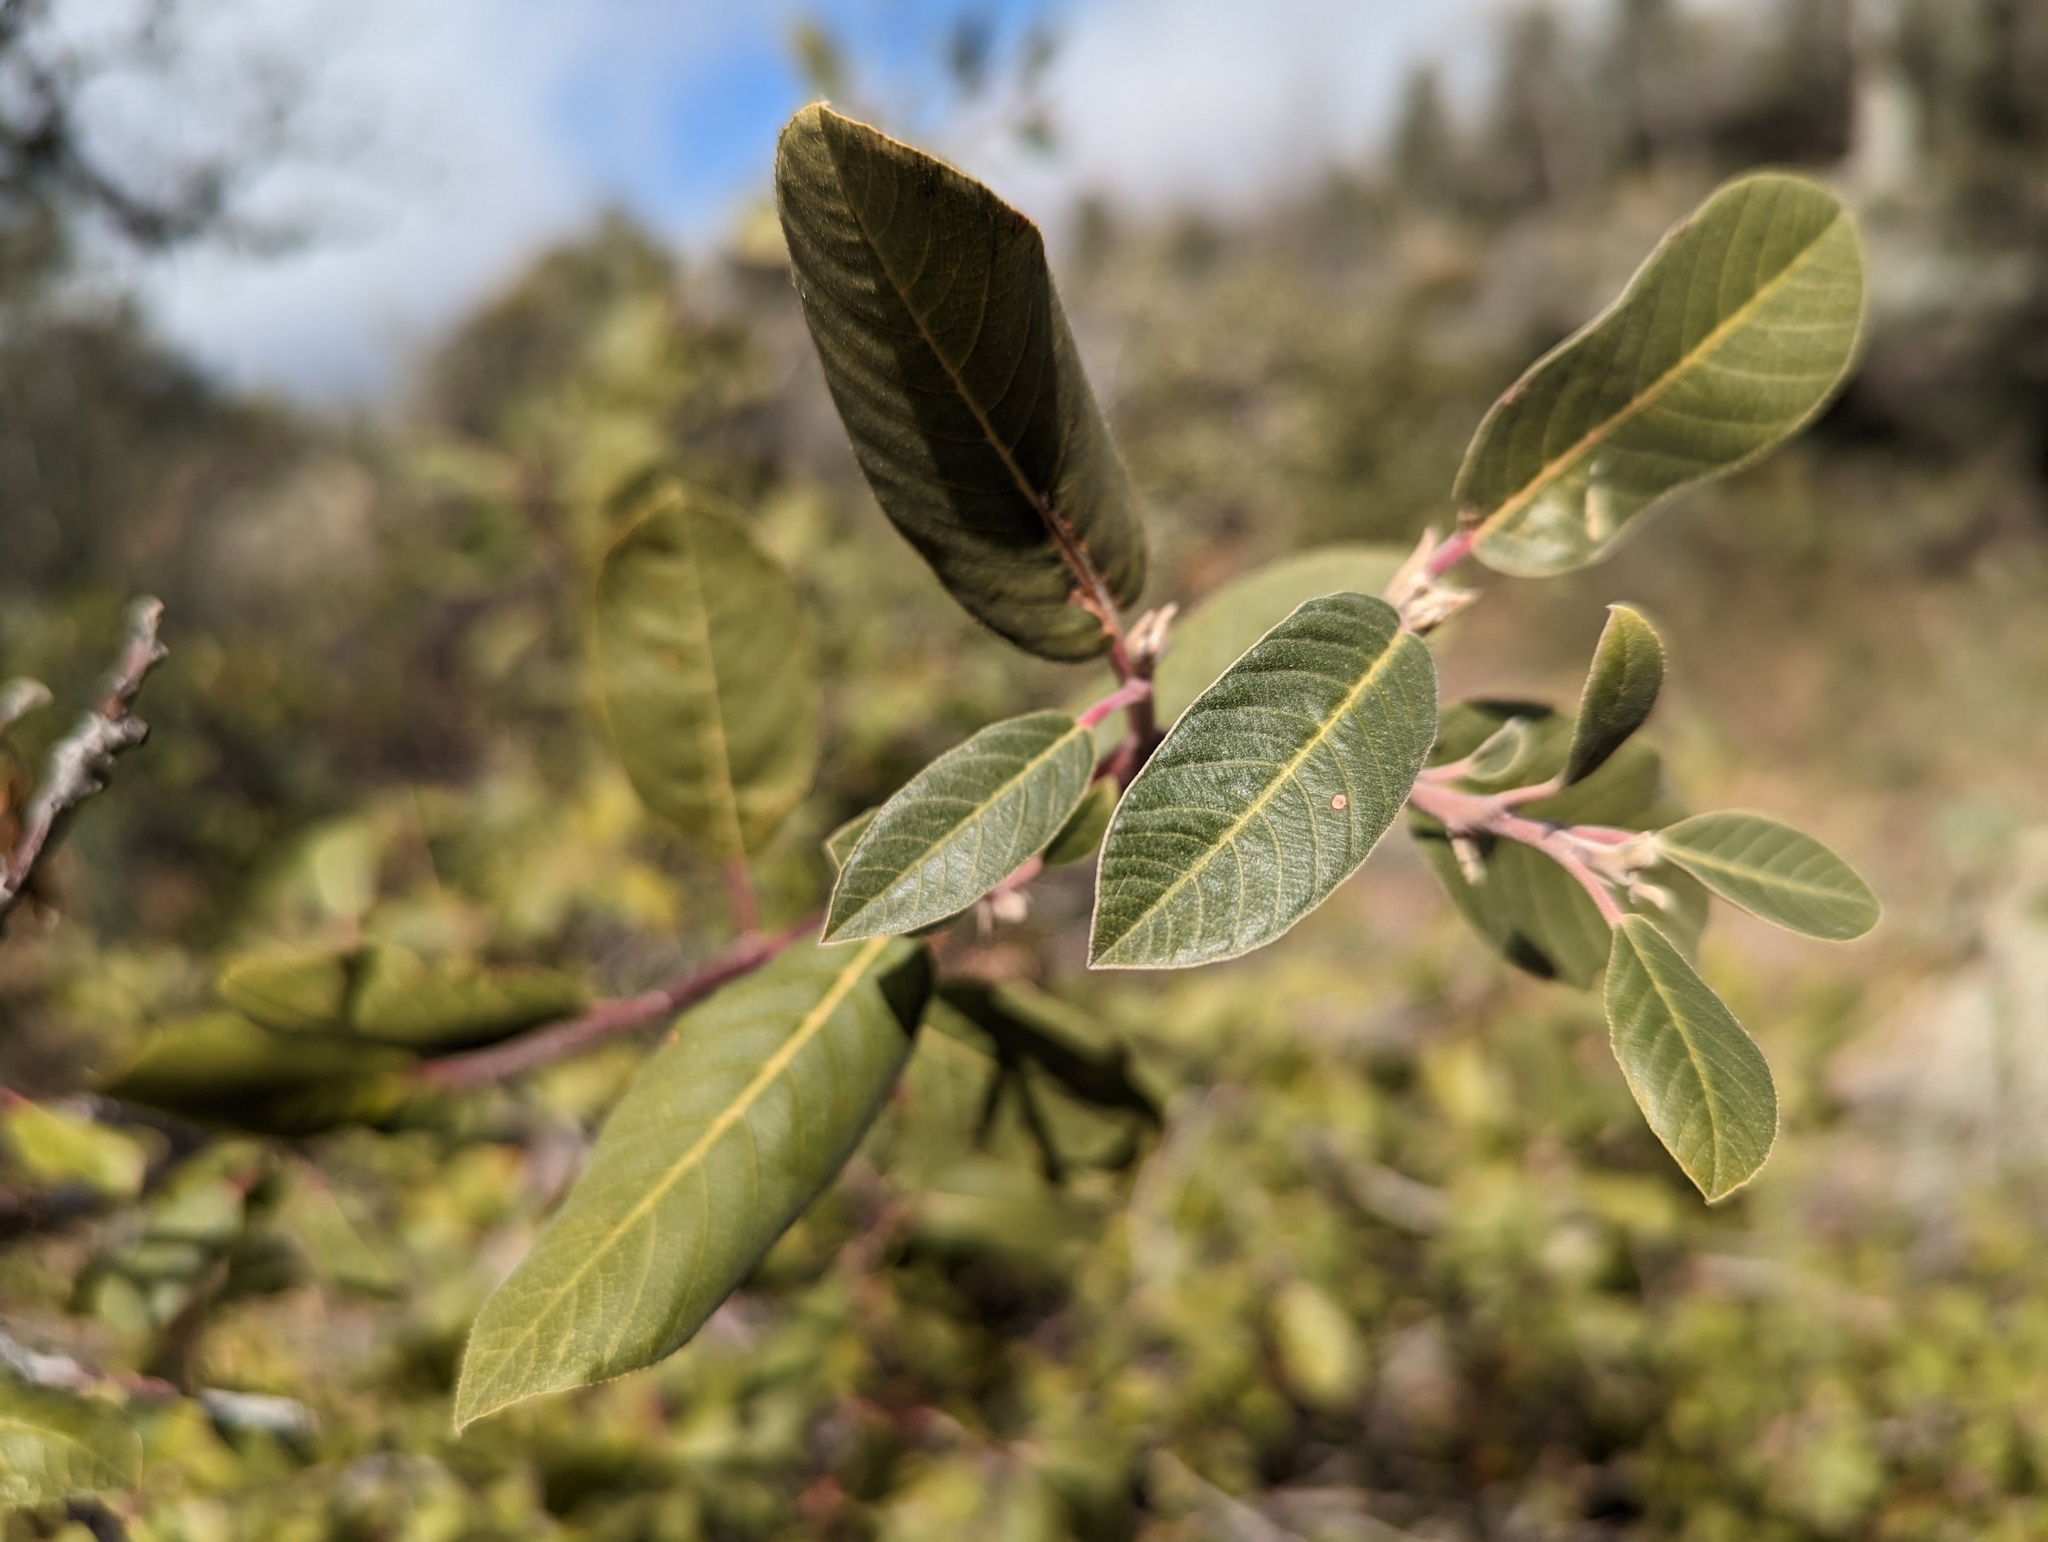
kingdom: Plantae
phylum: Tracheophyta
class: Magnoliopsida
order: Rosales
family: Rhamnaceae
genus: Frangula
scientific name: Frangula californica
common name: California buckthorn
